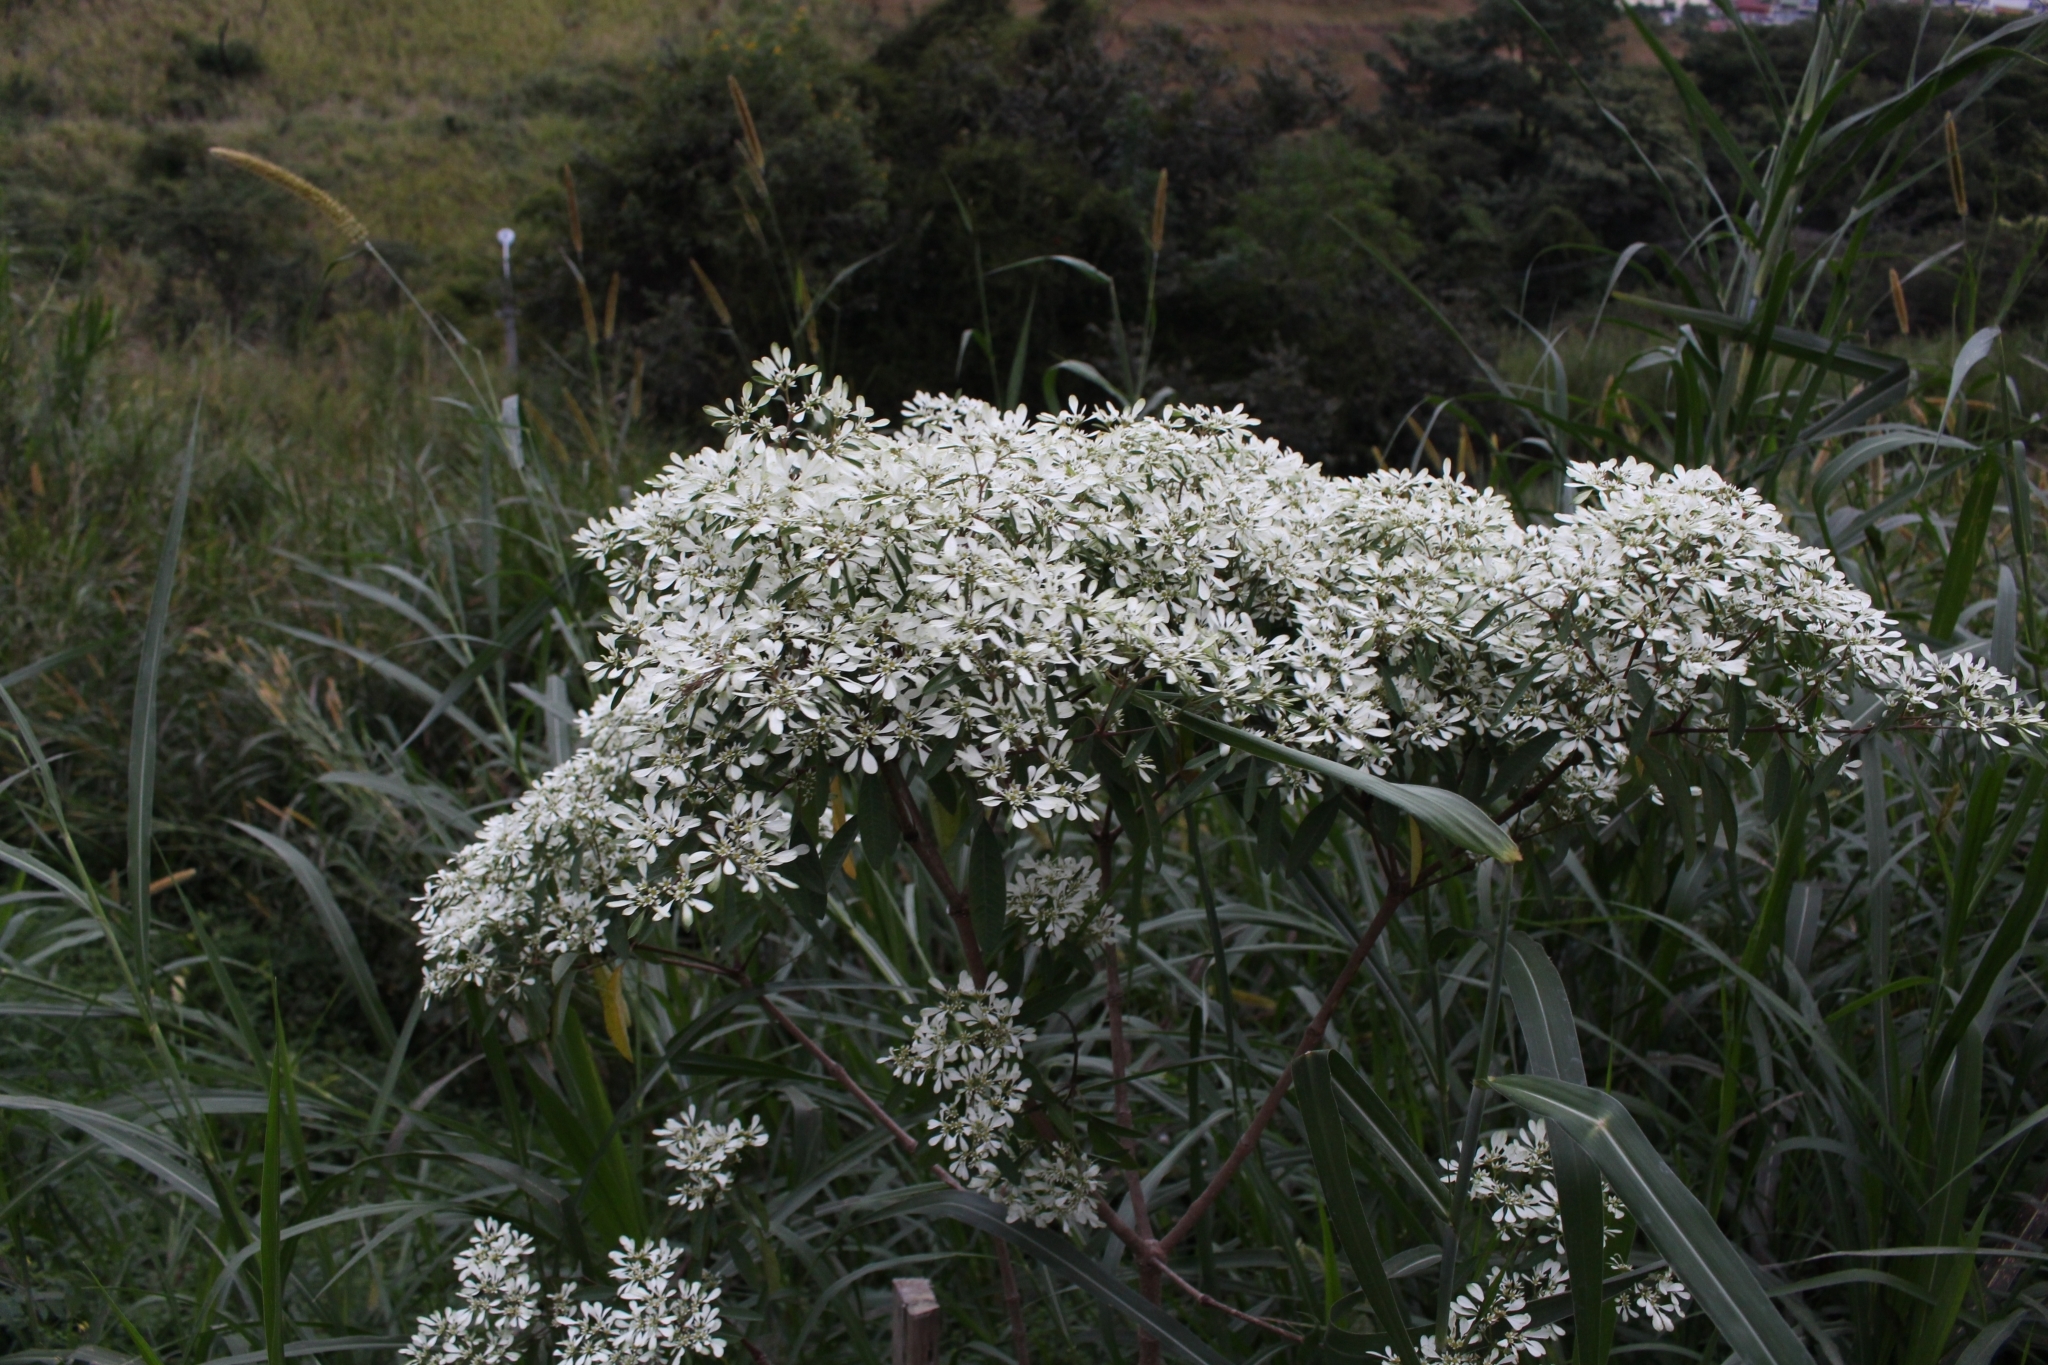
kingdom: Plantae
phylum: Tracheophyta
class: Magnoliopsida
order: Malpighiales
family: Euphorbiaceae
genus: Euphorbia
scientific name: Euphorbia leucocephala
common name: Pascuita
